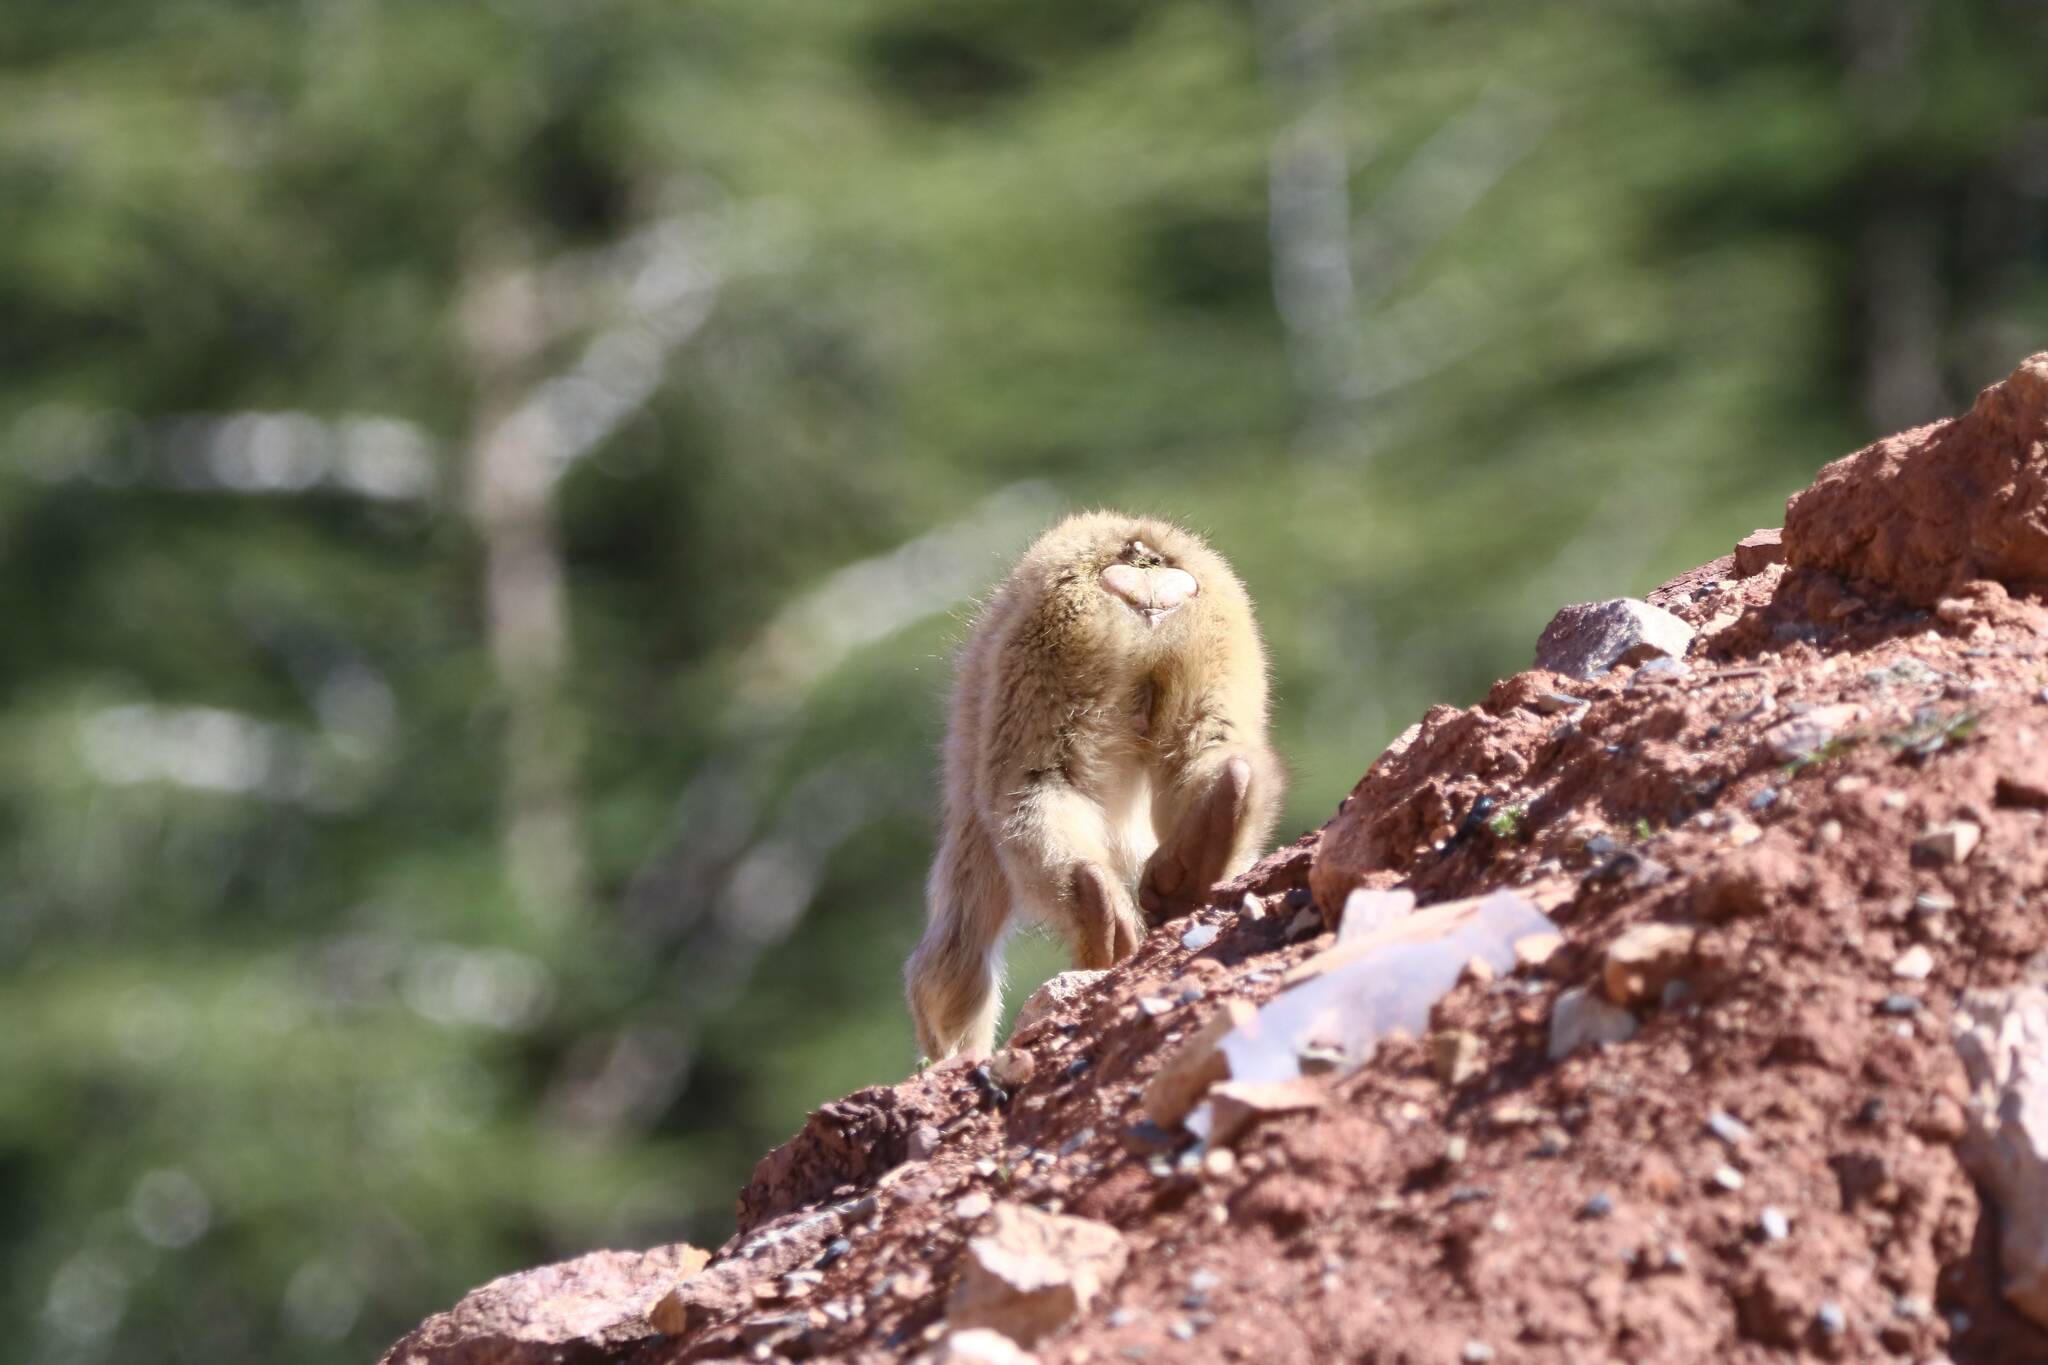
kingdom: Animalia
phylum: Chordata
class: Mammalia
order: Primates
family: Cercopithecidae
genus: Macaca
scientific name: Macaca sylvanus
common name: Barbary macaque
